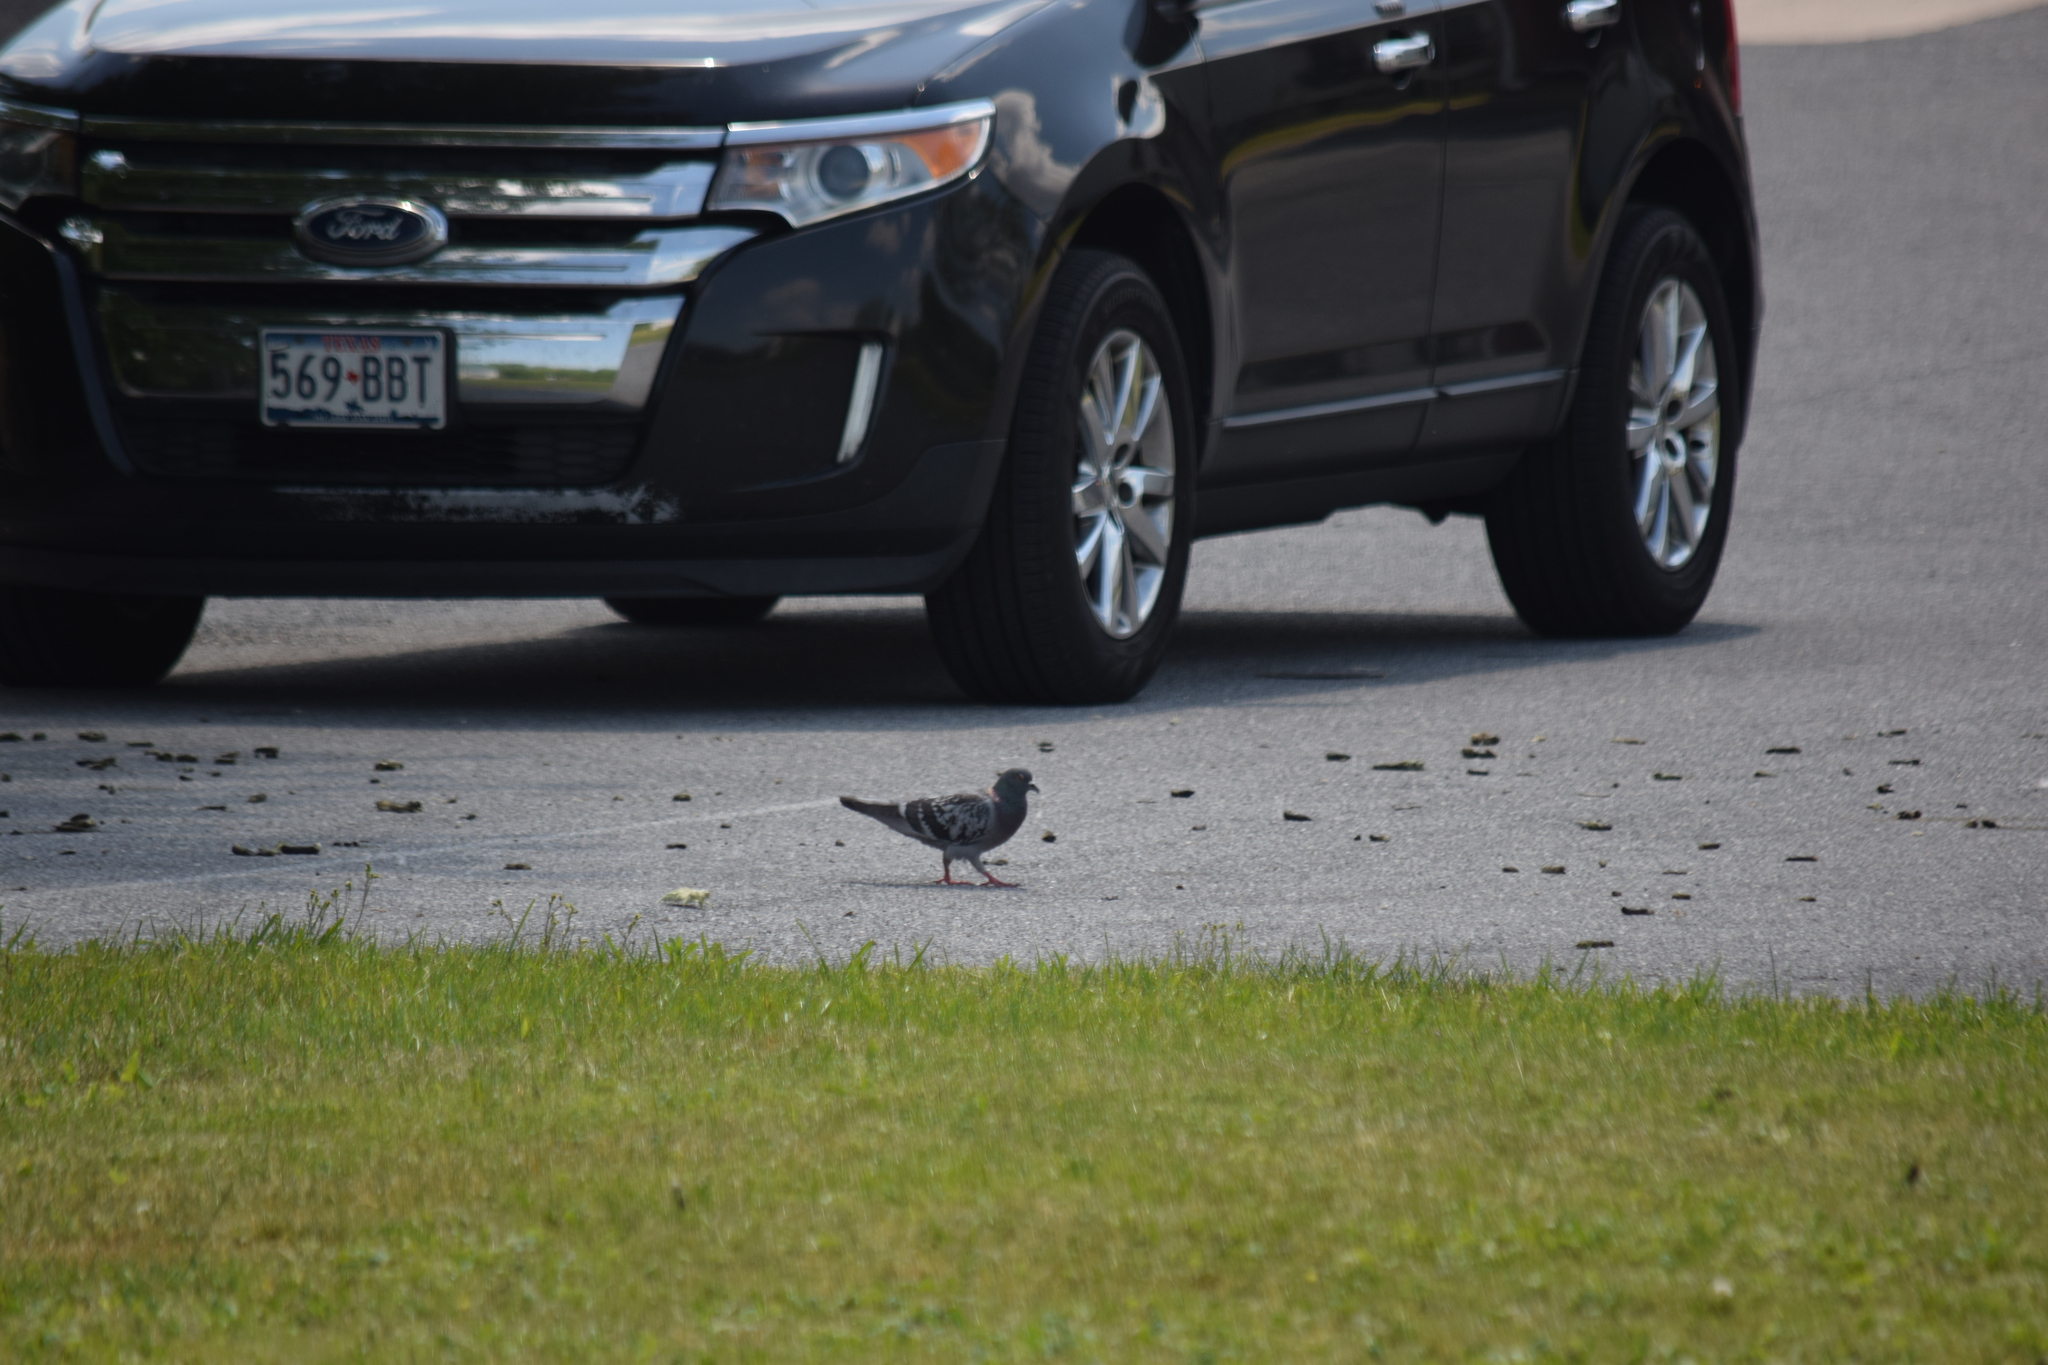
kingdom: Animalia
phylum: Chordata
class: Aves
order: Columbiformes
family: Columbidae
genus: Columba
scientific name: Columba livia
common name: Rock pigeon
